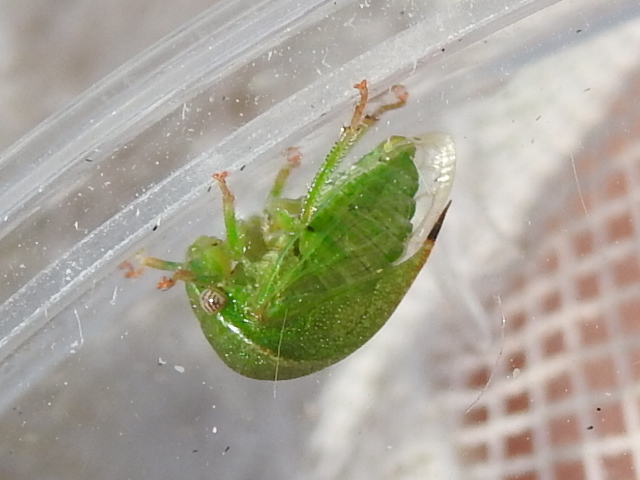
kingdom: Animalia
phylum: Arthropoda
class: Insecta
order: Hemiptera
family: Membracidae
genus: Spissistilus
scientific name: Spissistilus festina
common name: Membracid bug
